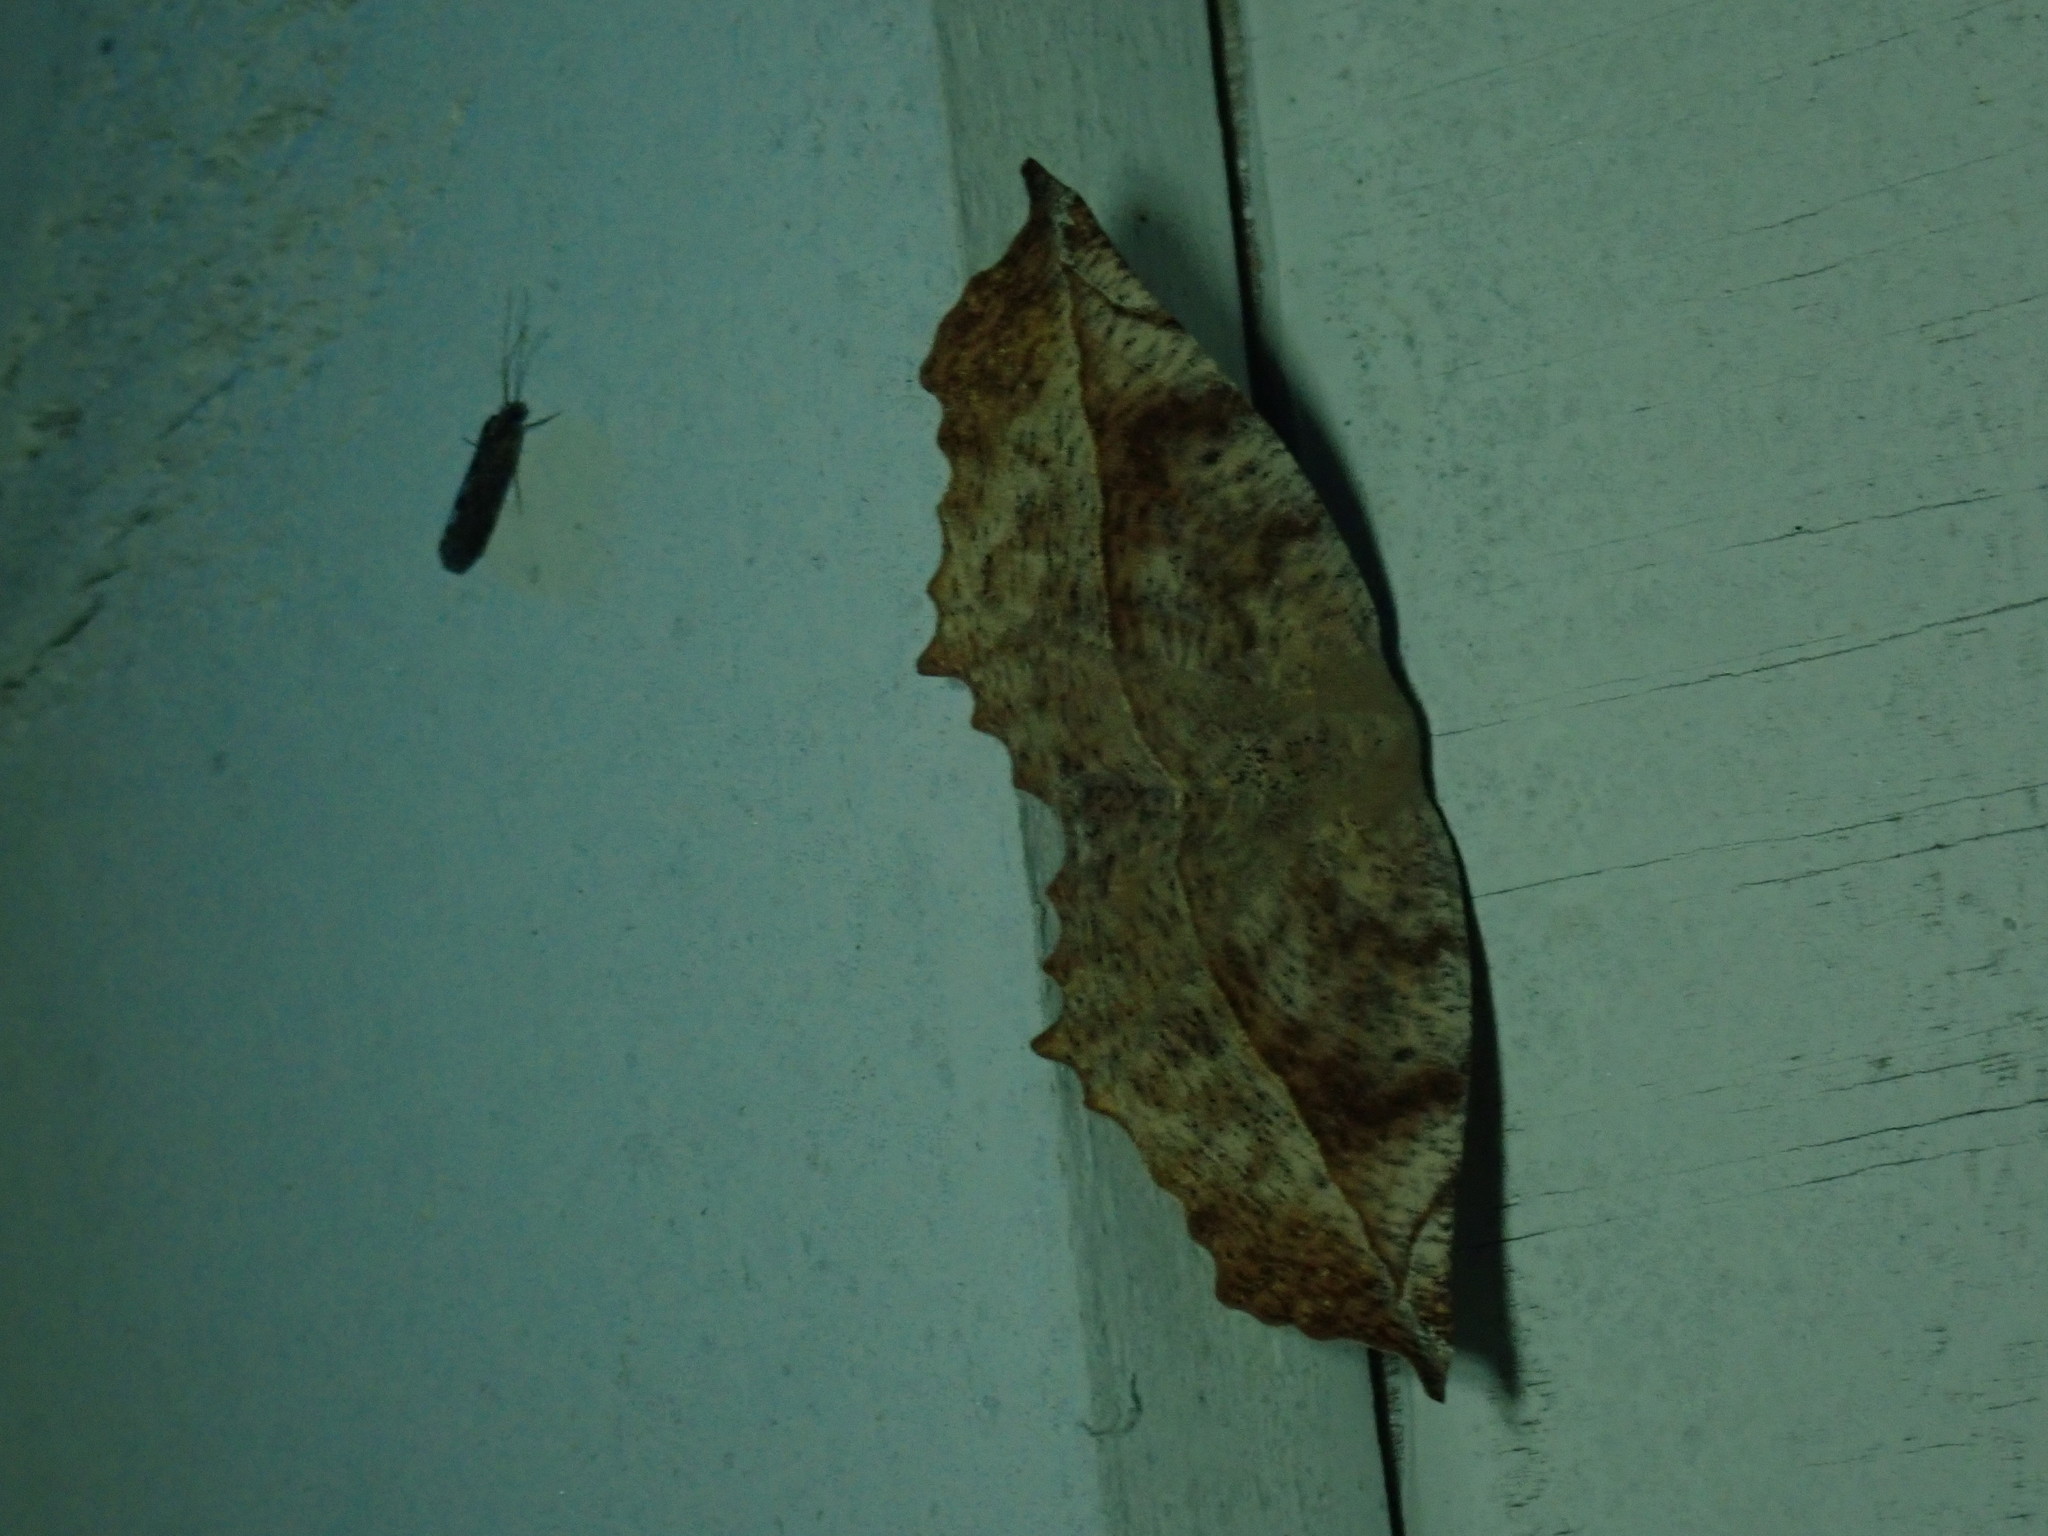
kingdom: Animalia
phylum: Arthropoda
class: Insecta
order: Lepidoptera
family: Geometridae
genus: Eutrapela
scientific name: Eutrapela clemataria
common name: Curved-toothed geometer
